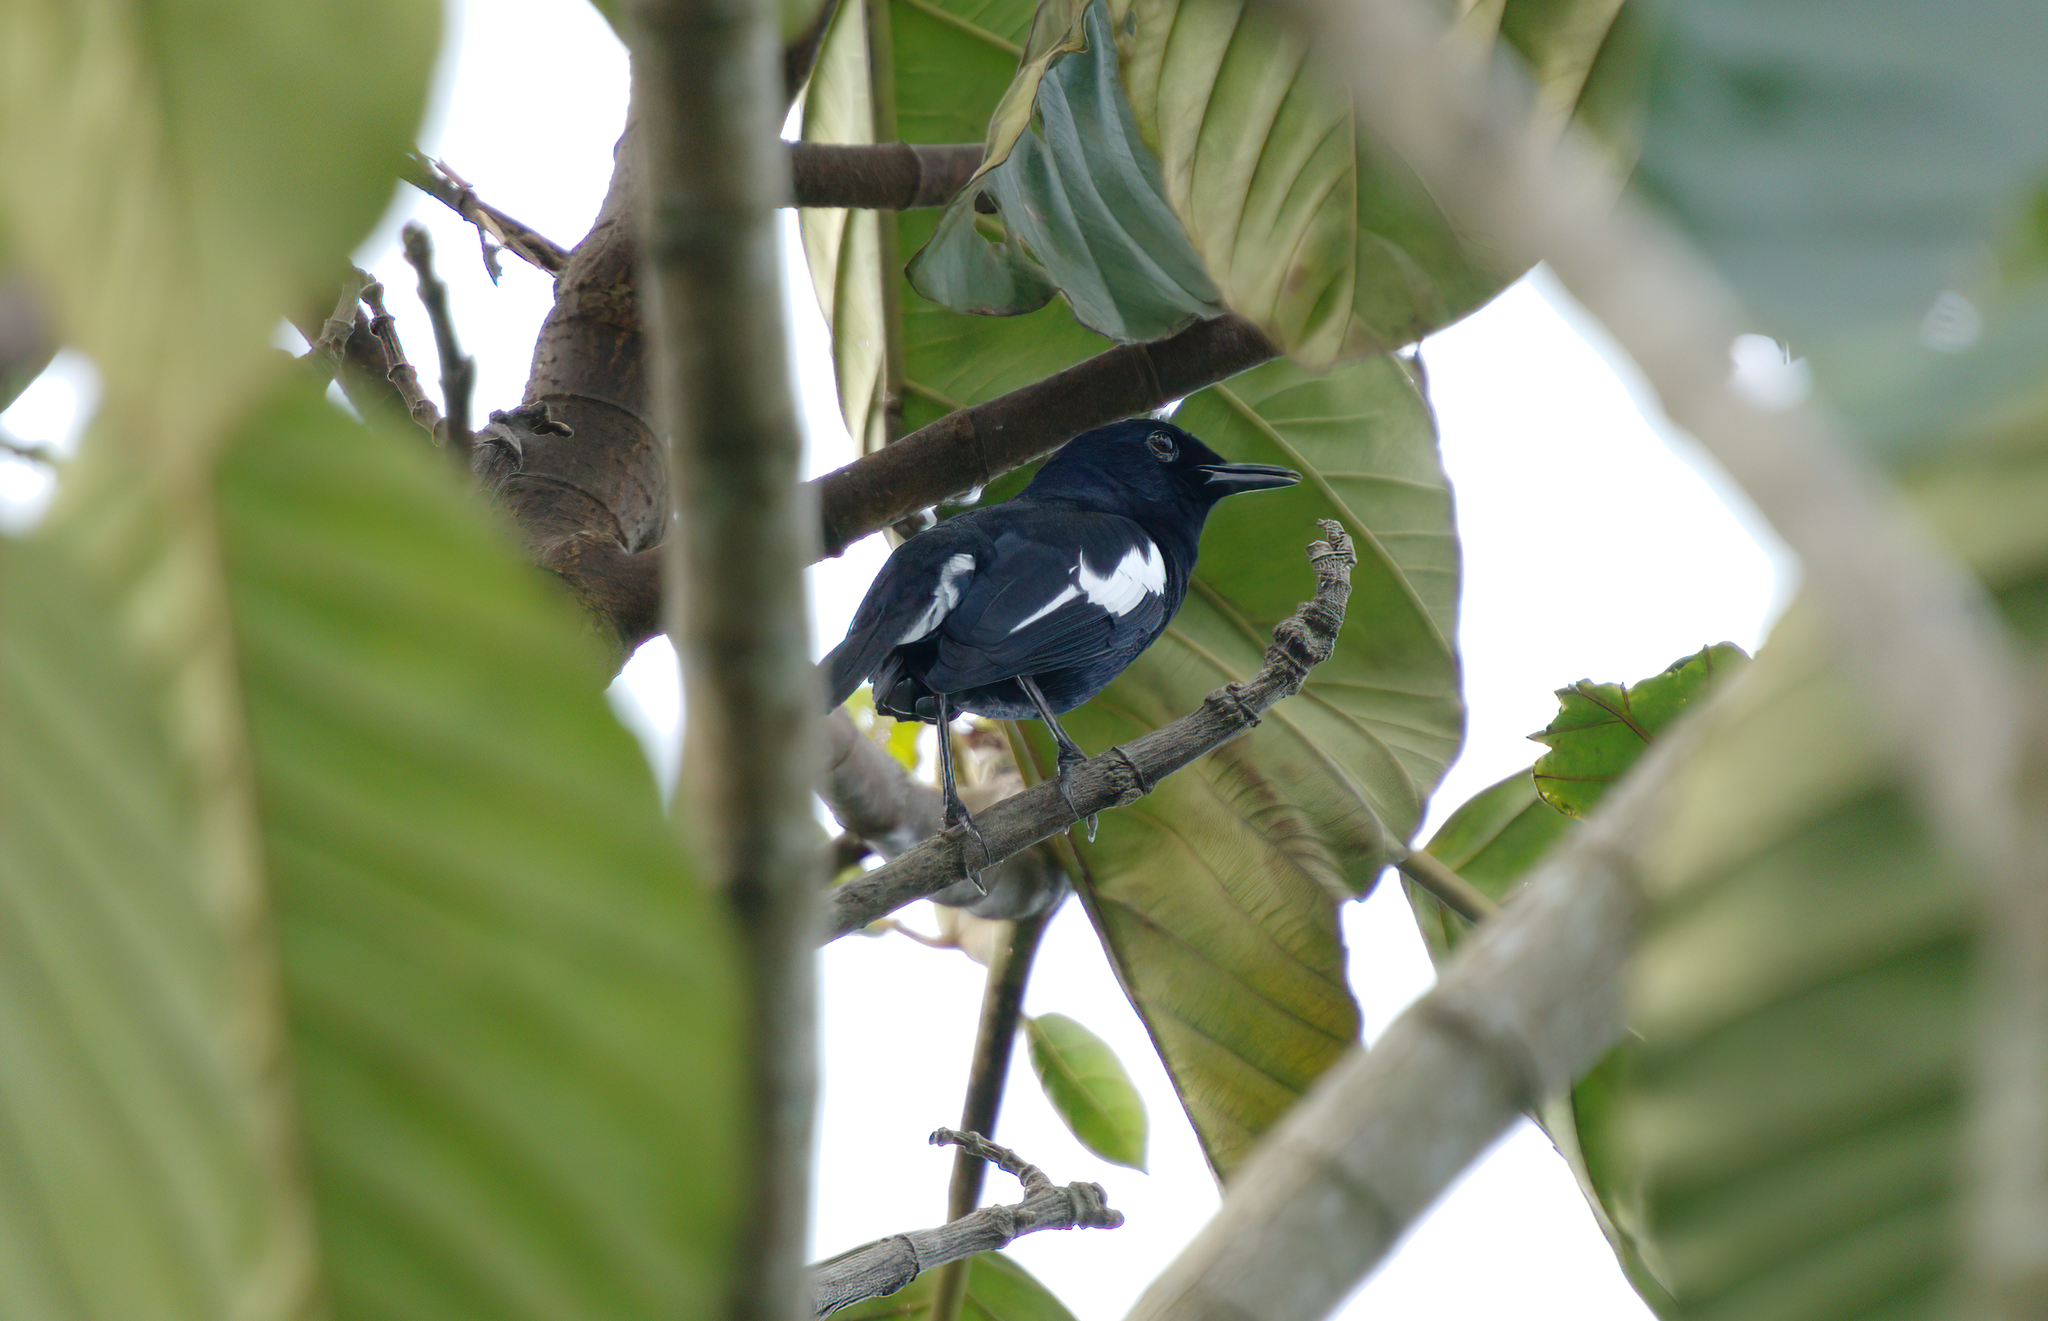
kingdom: Animalia
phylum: Chordata
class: Aves
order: Passeriformes
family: Muscicapidae
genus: Copsychus
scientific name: Copsychus saularis
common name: Oriental magpie-robin
